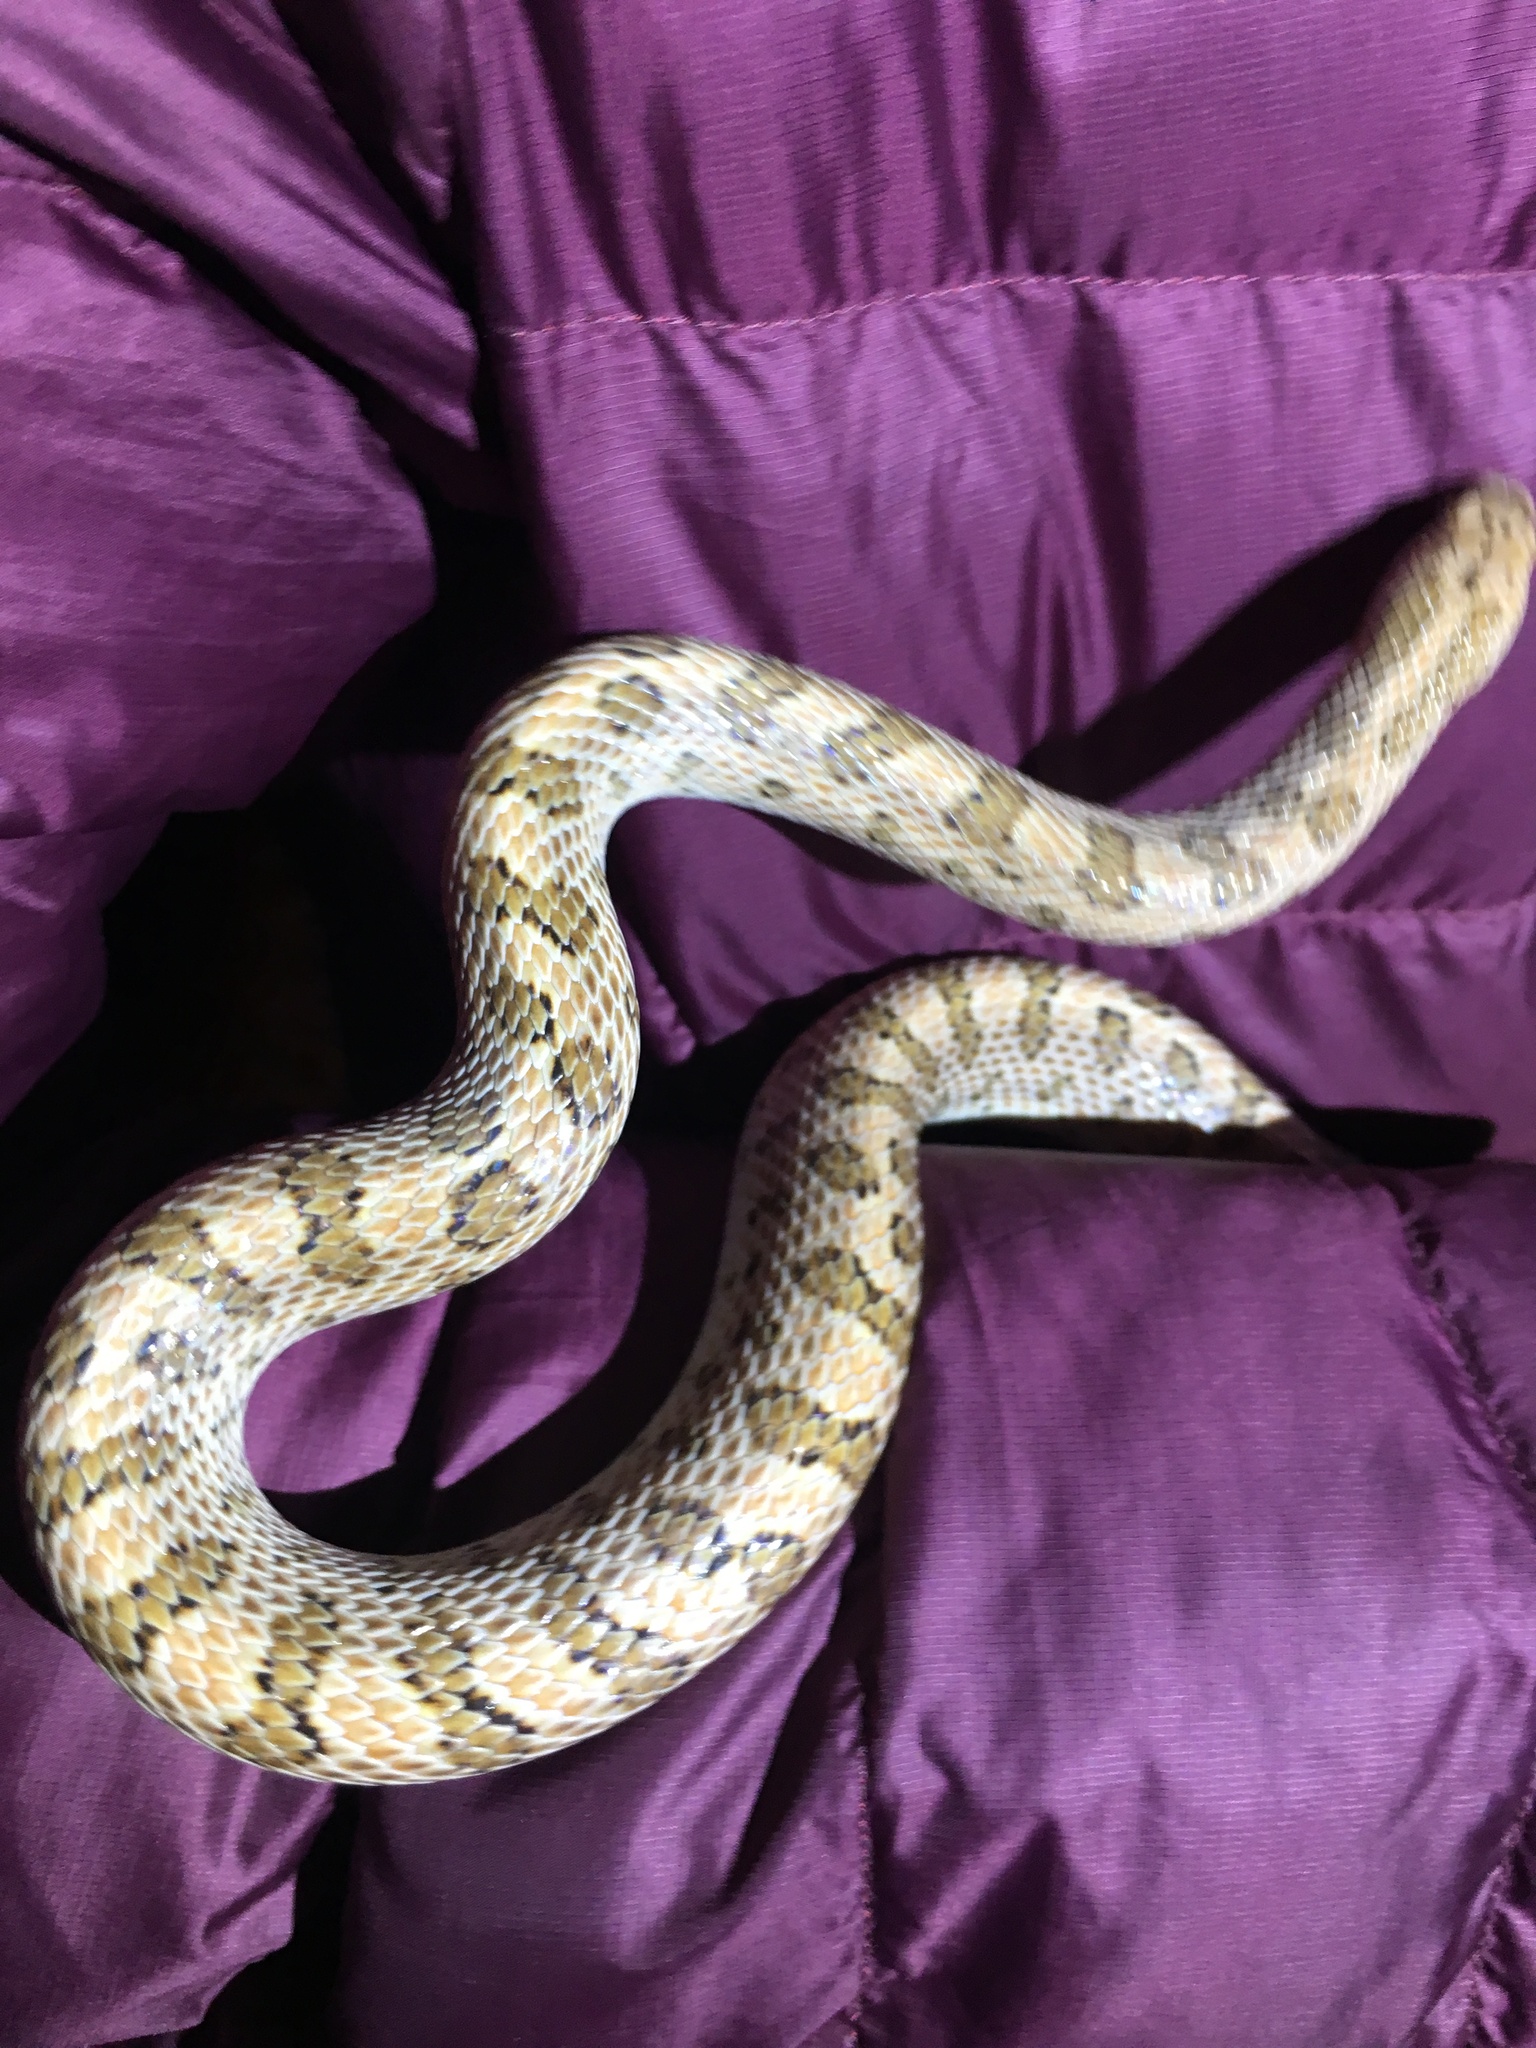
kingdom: Animalia
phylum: Chordata
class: Squamata
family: Colubridae
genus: Arizona
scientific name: Arizona elegans
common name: Glossy snake
